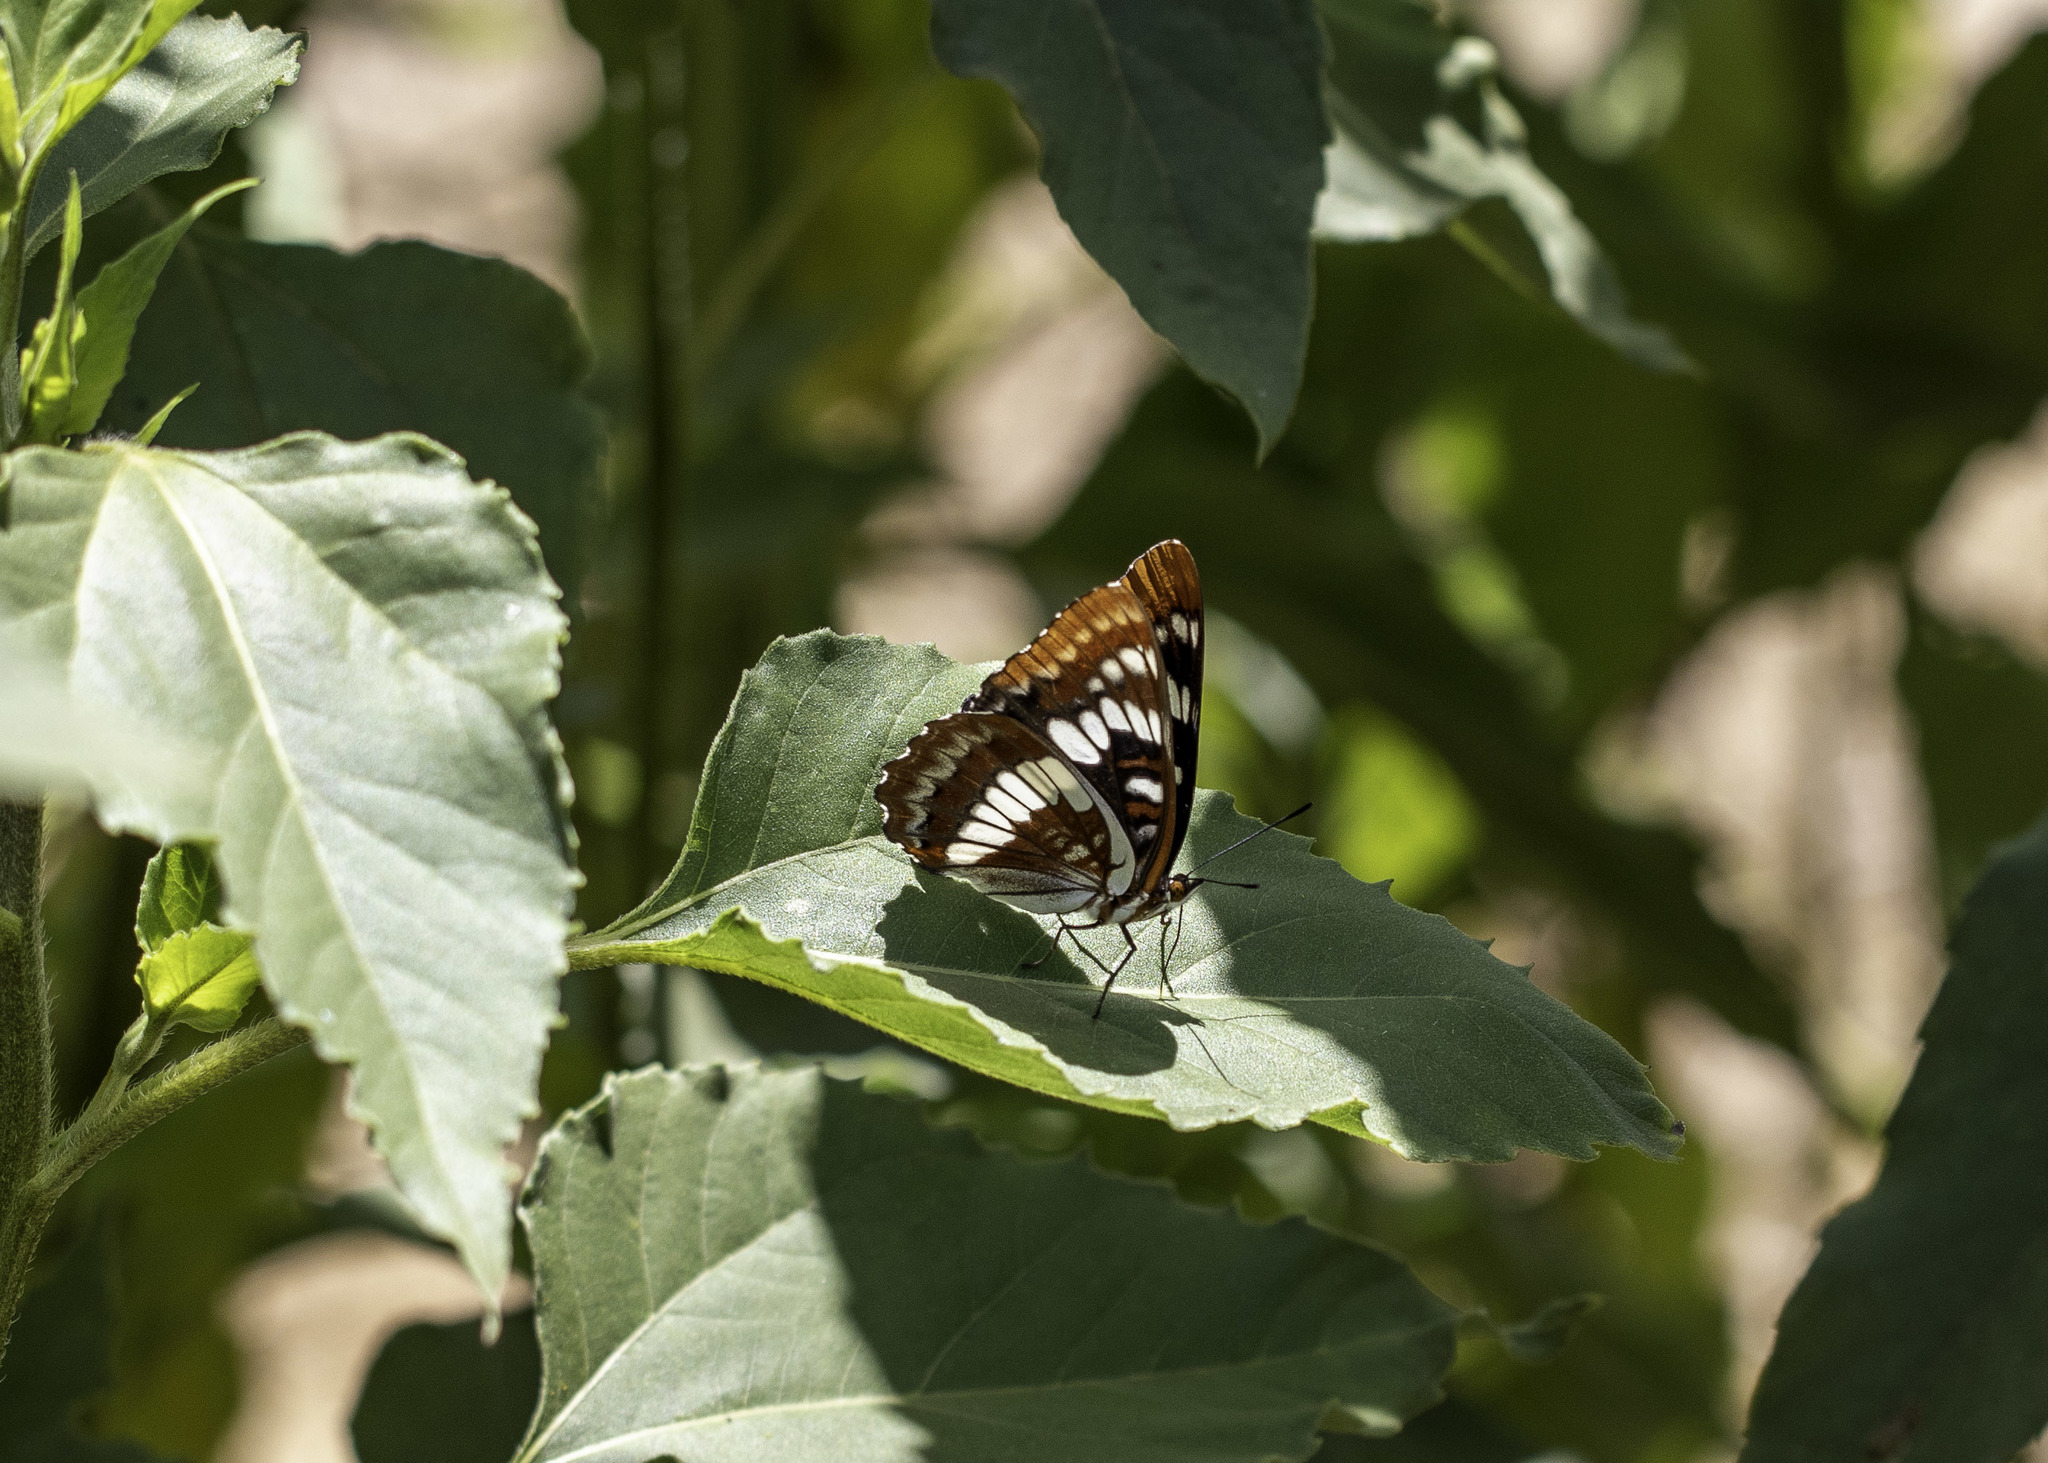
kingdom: Animalia
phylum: Arthropoda
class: Insecta
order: Lepidoptera
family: Nymphalidae
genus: Limenitis
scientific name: Limenitis lorquini
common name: Lorquin's admiral
